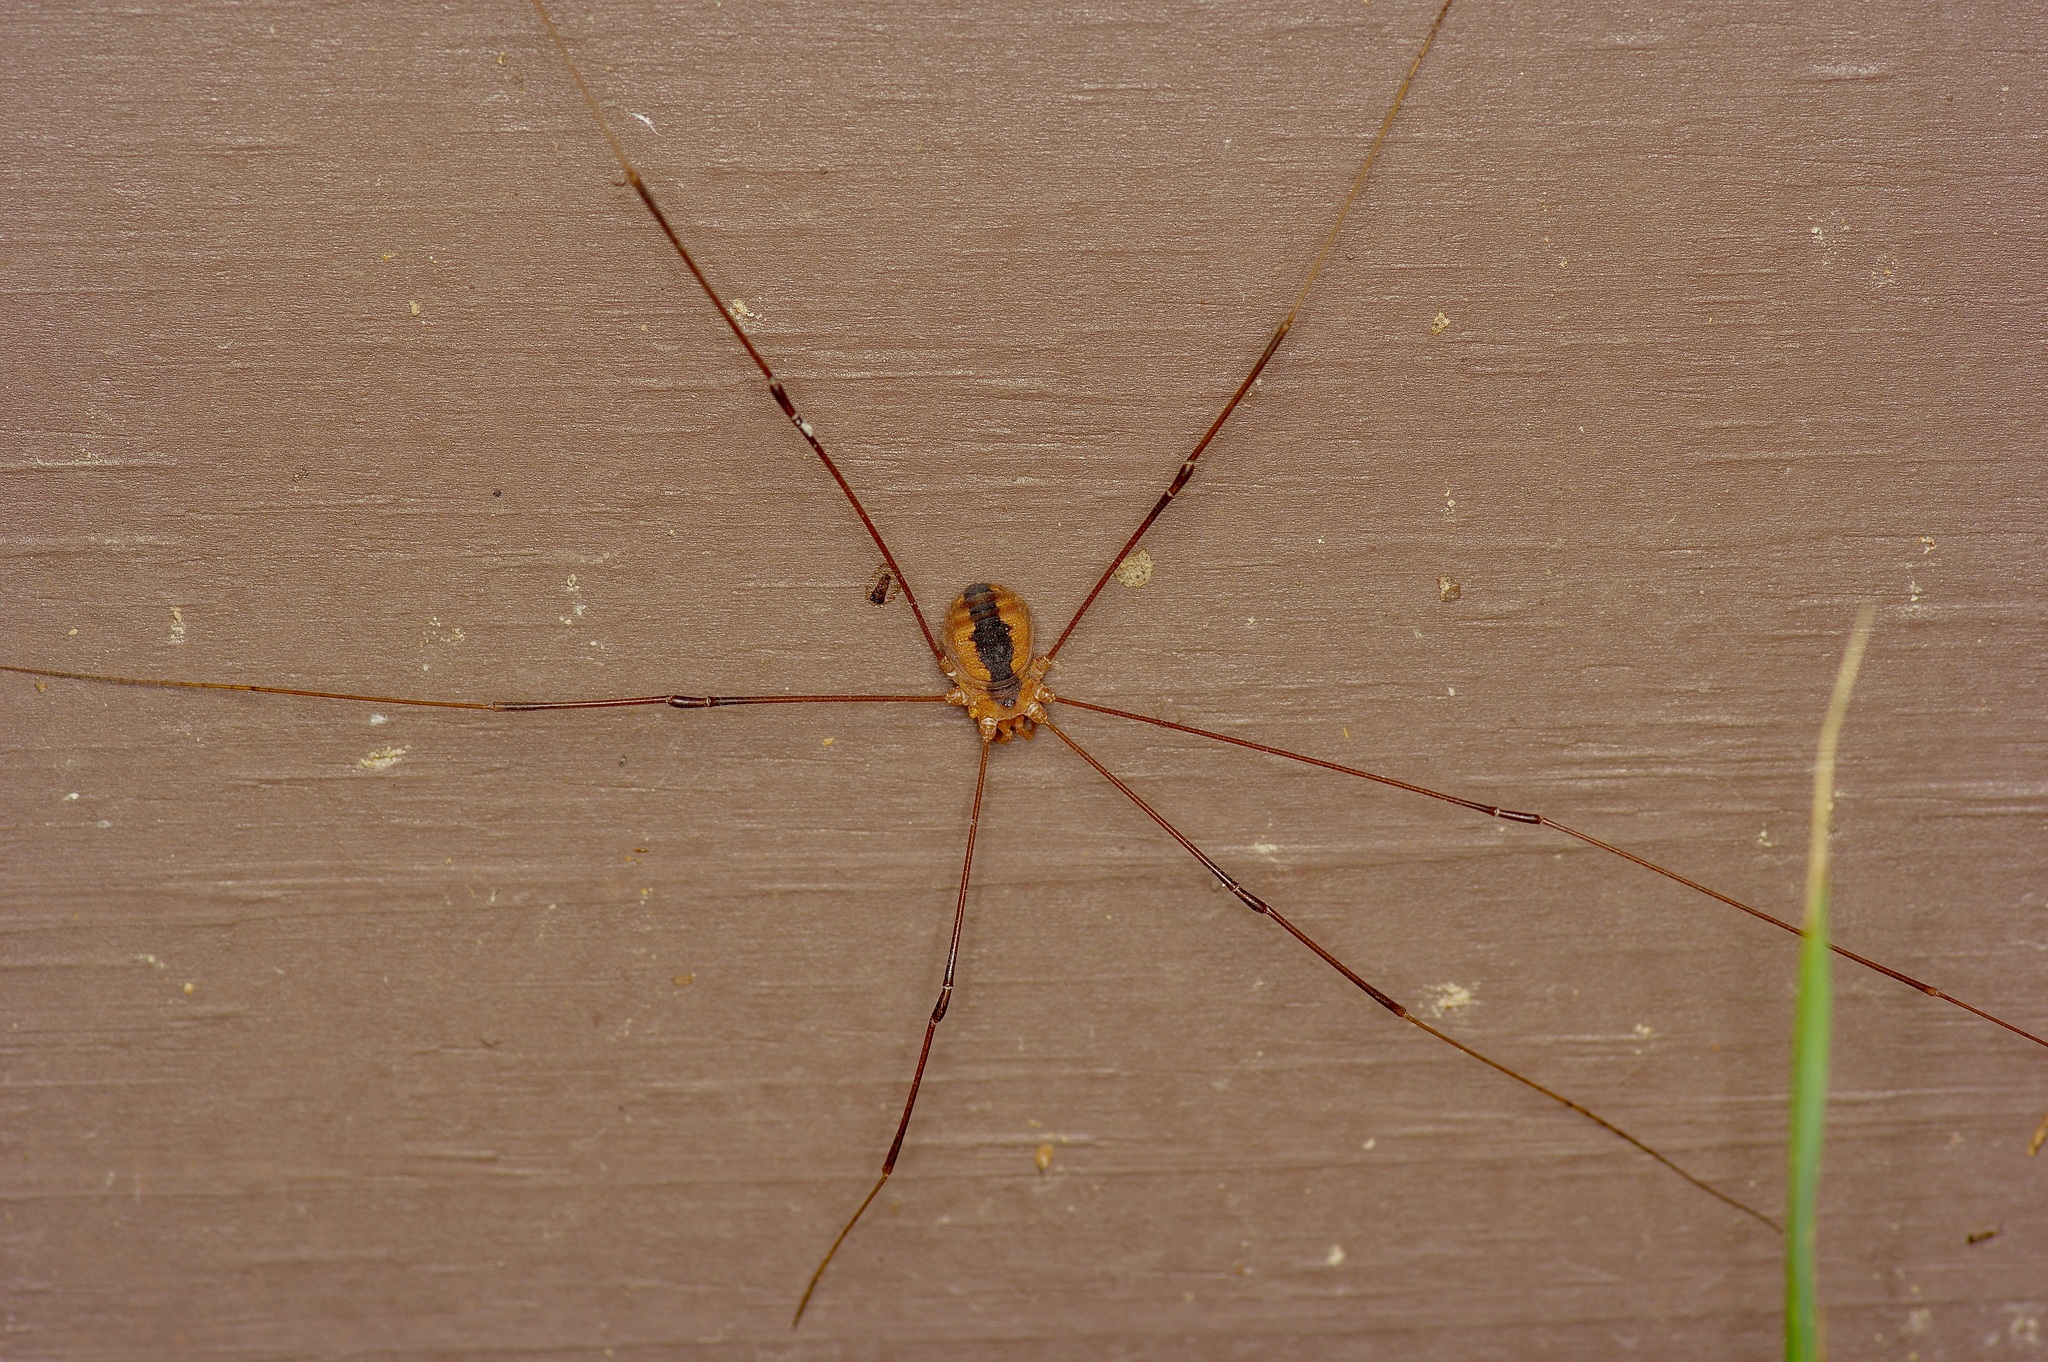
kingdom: Animalia
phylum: Arthropoda
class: Arachnida
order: Opiliones
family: Sclerosomatidae
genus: Leiobunum
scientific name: Leiobunum vittatum
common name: Eastern harvestman
